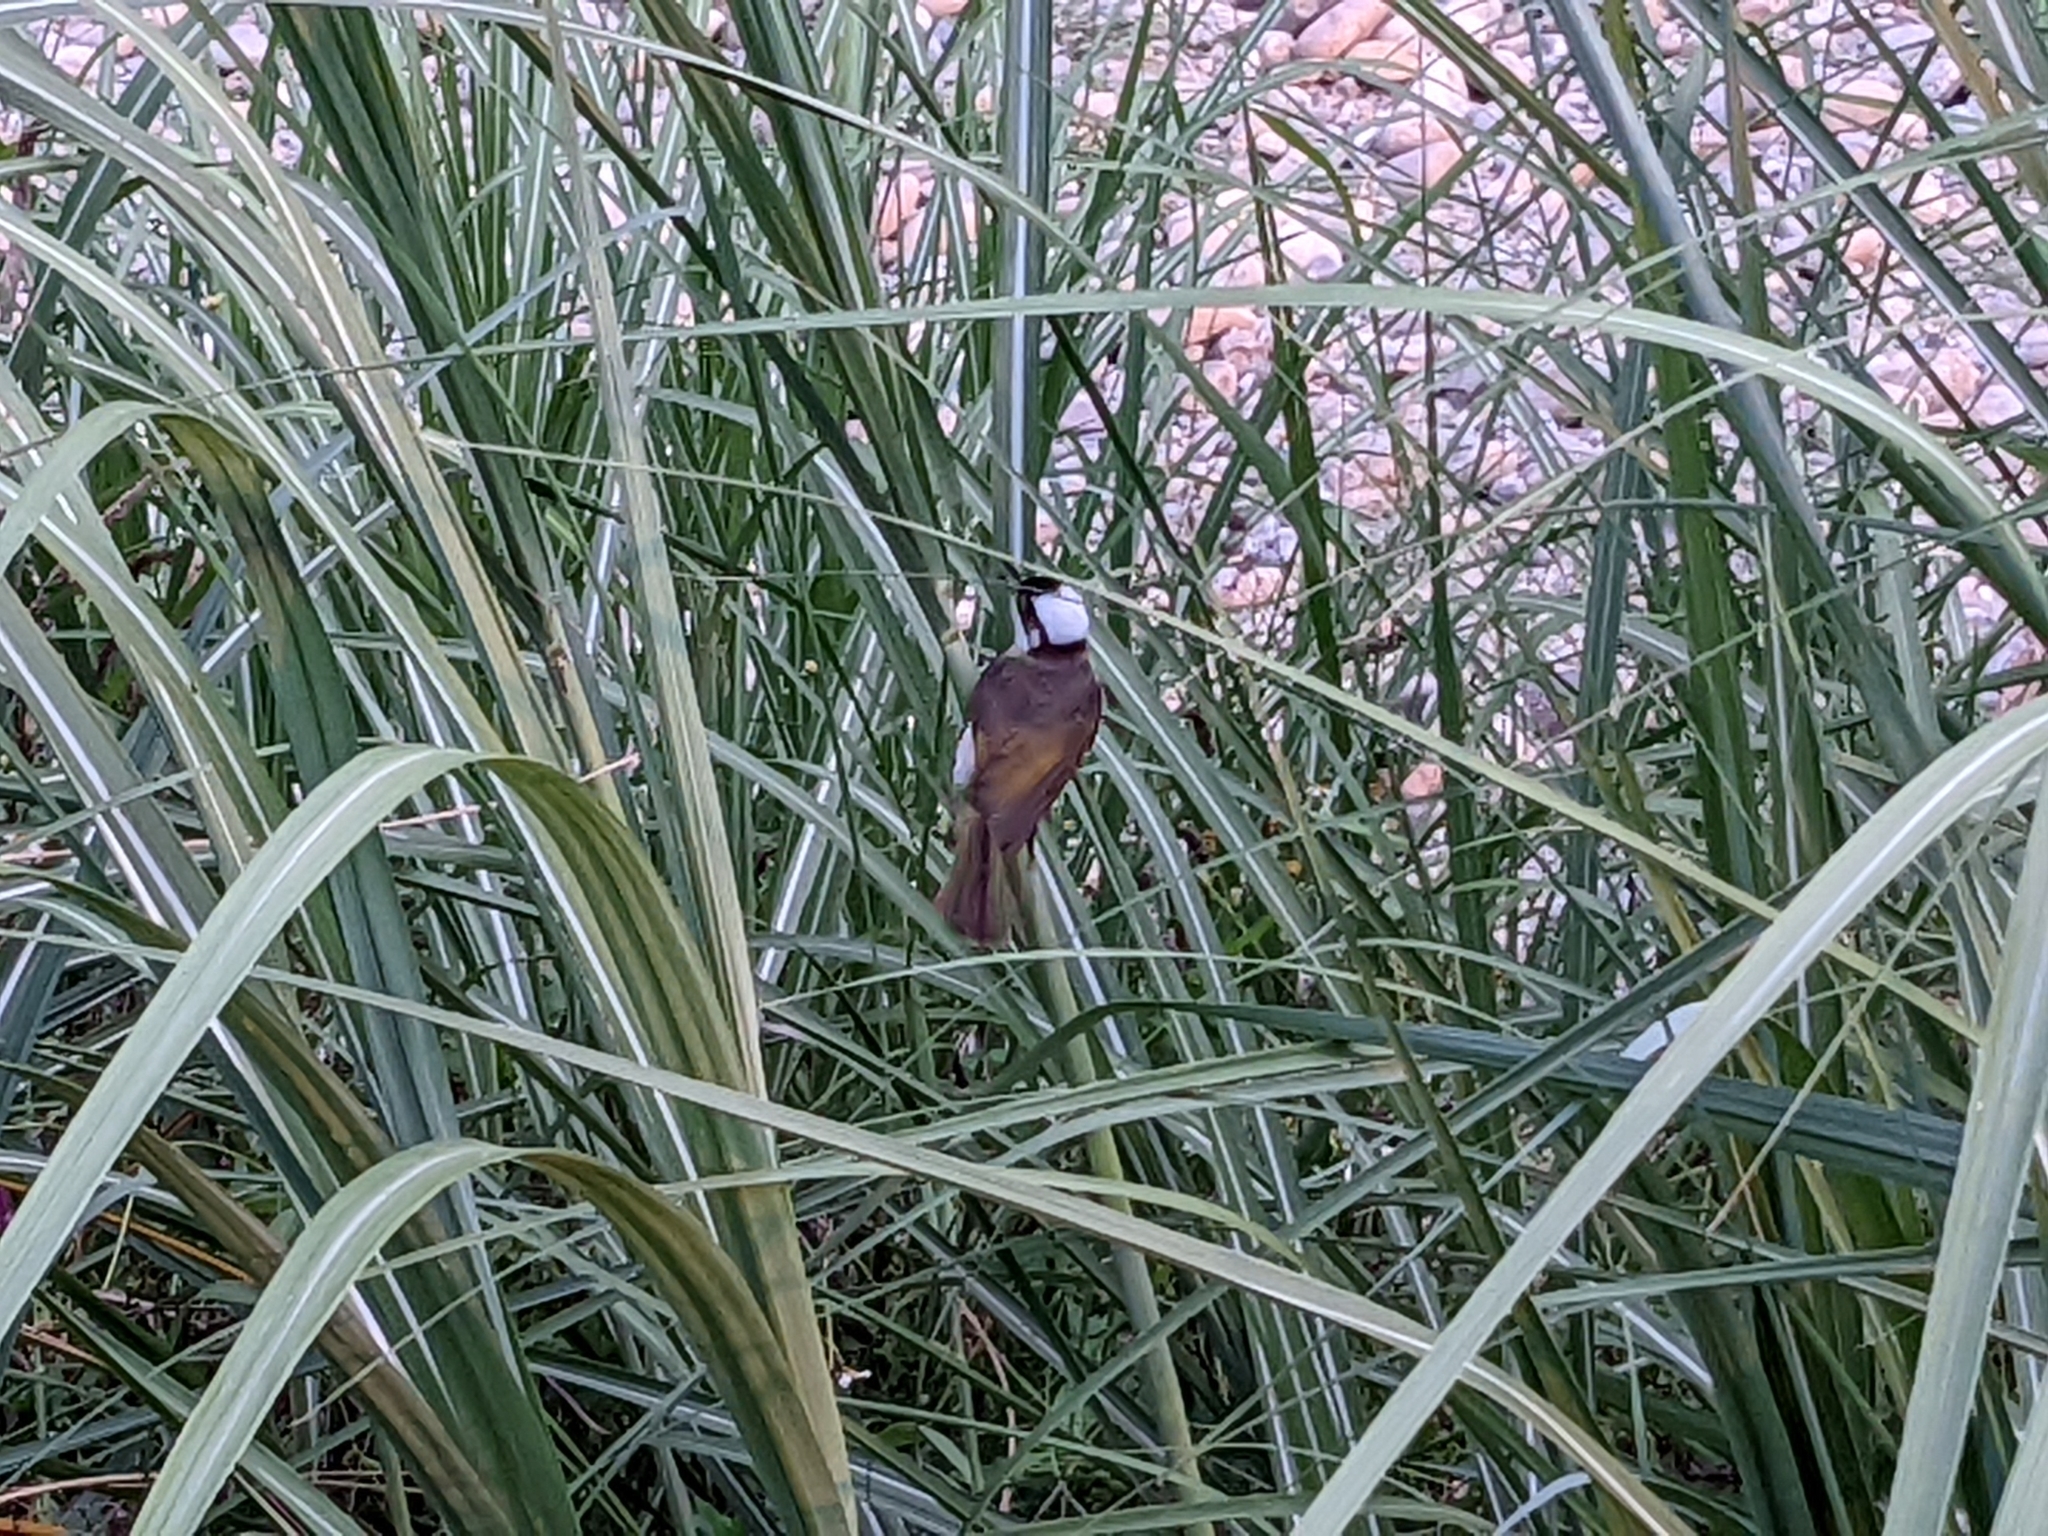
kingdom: Animalia
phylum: Chordata
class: Aves
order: Passeriformes
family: Pycnonotidae
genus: Pycnonotus
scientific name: Pycnonotus sinensis
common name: Light-vented bulbul
